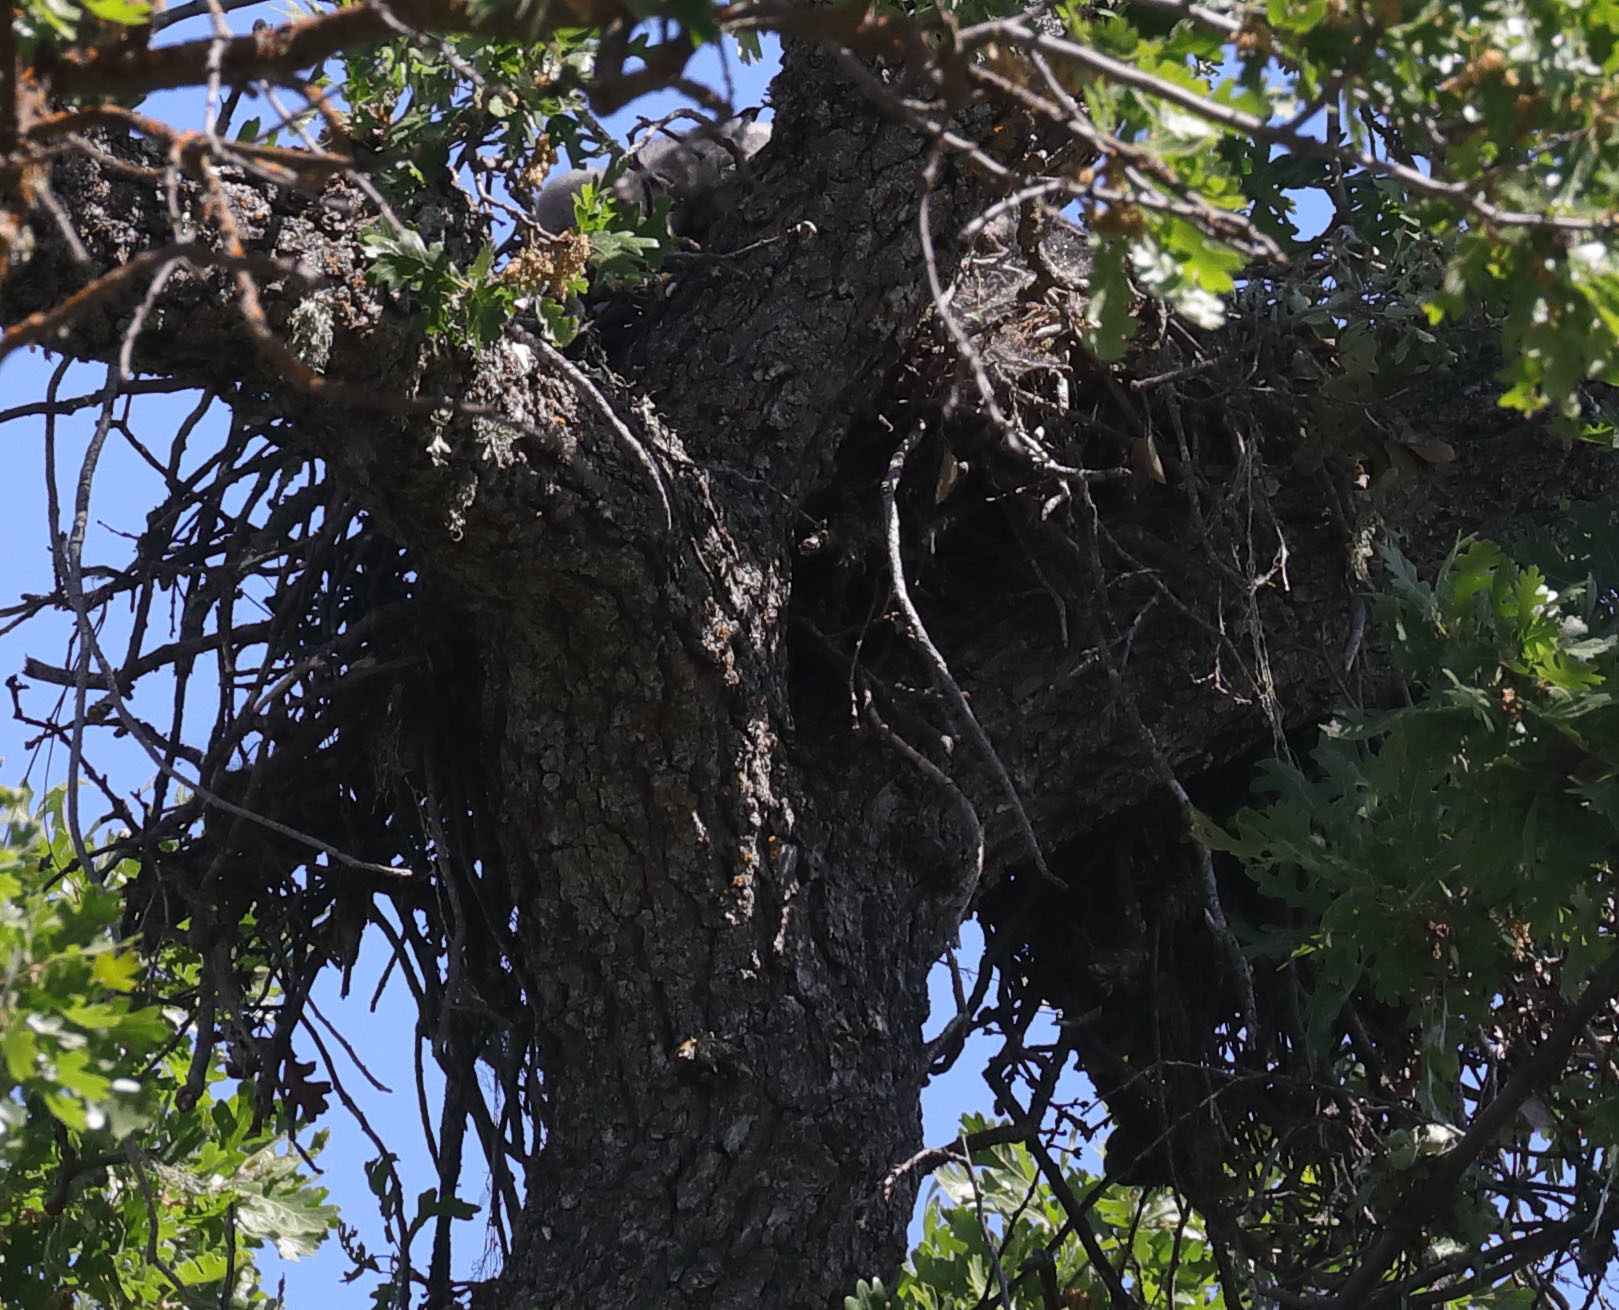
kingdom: Animalia
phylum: Chordata
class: Aves
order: Accipitriformes
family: Accipitridae
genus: Buteo
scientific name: Buteo jamaicensis
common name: Red-tailed hawk
